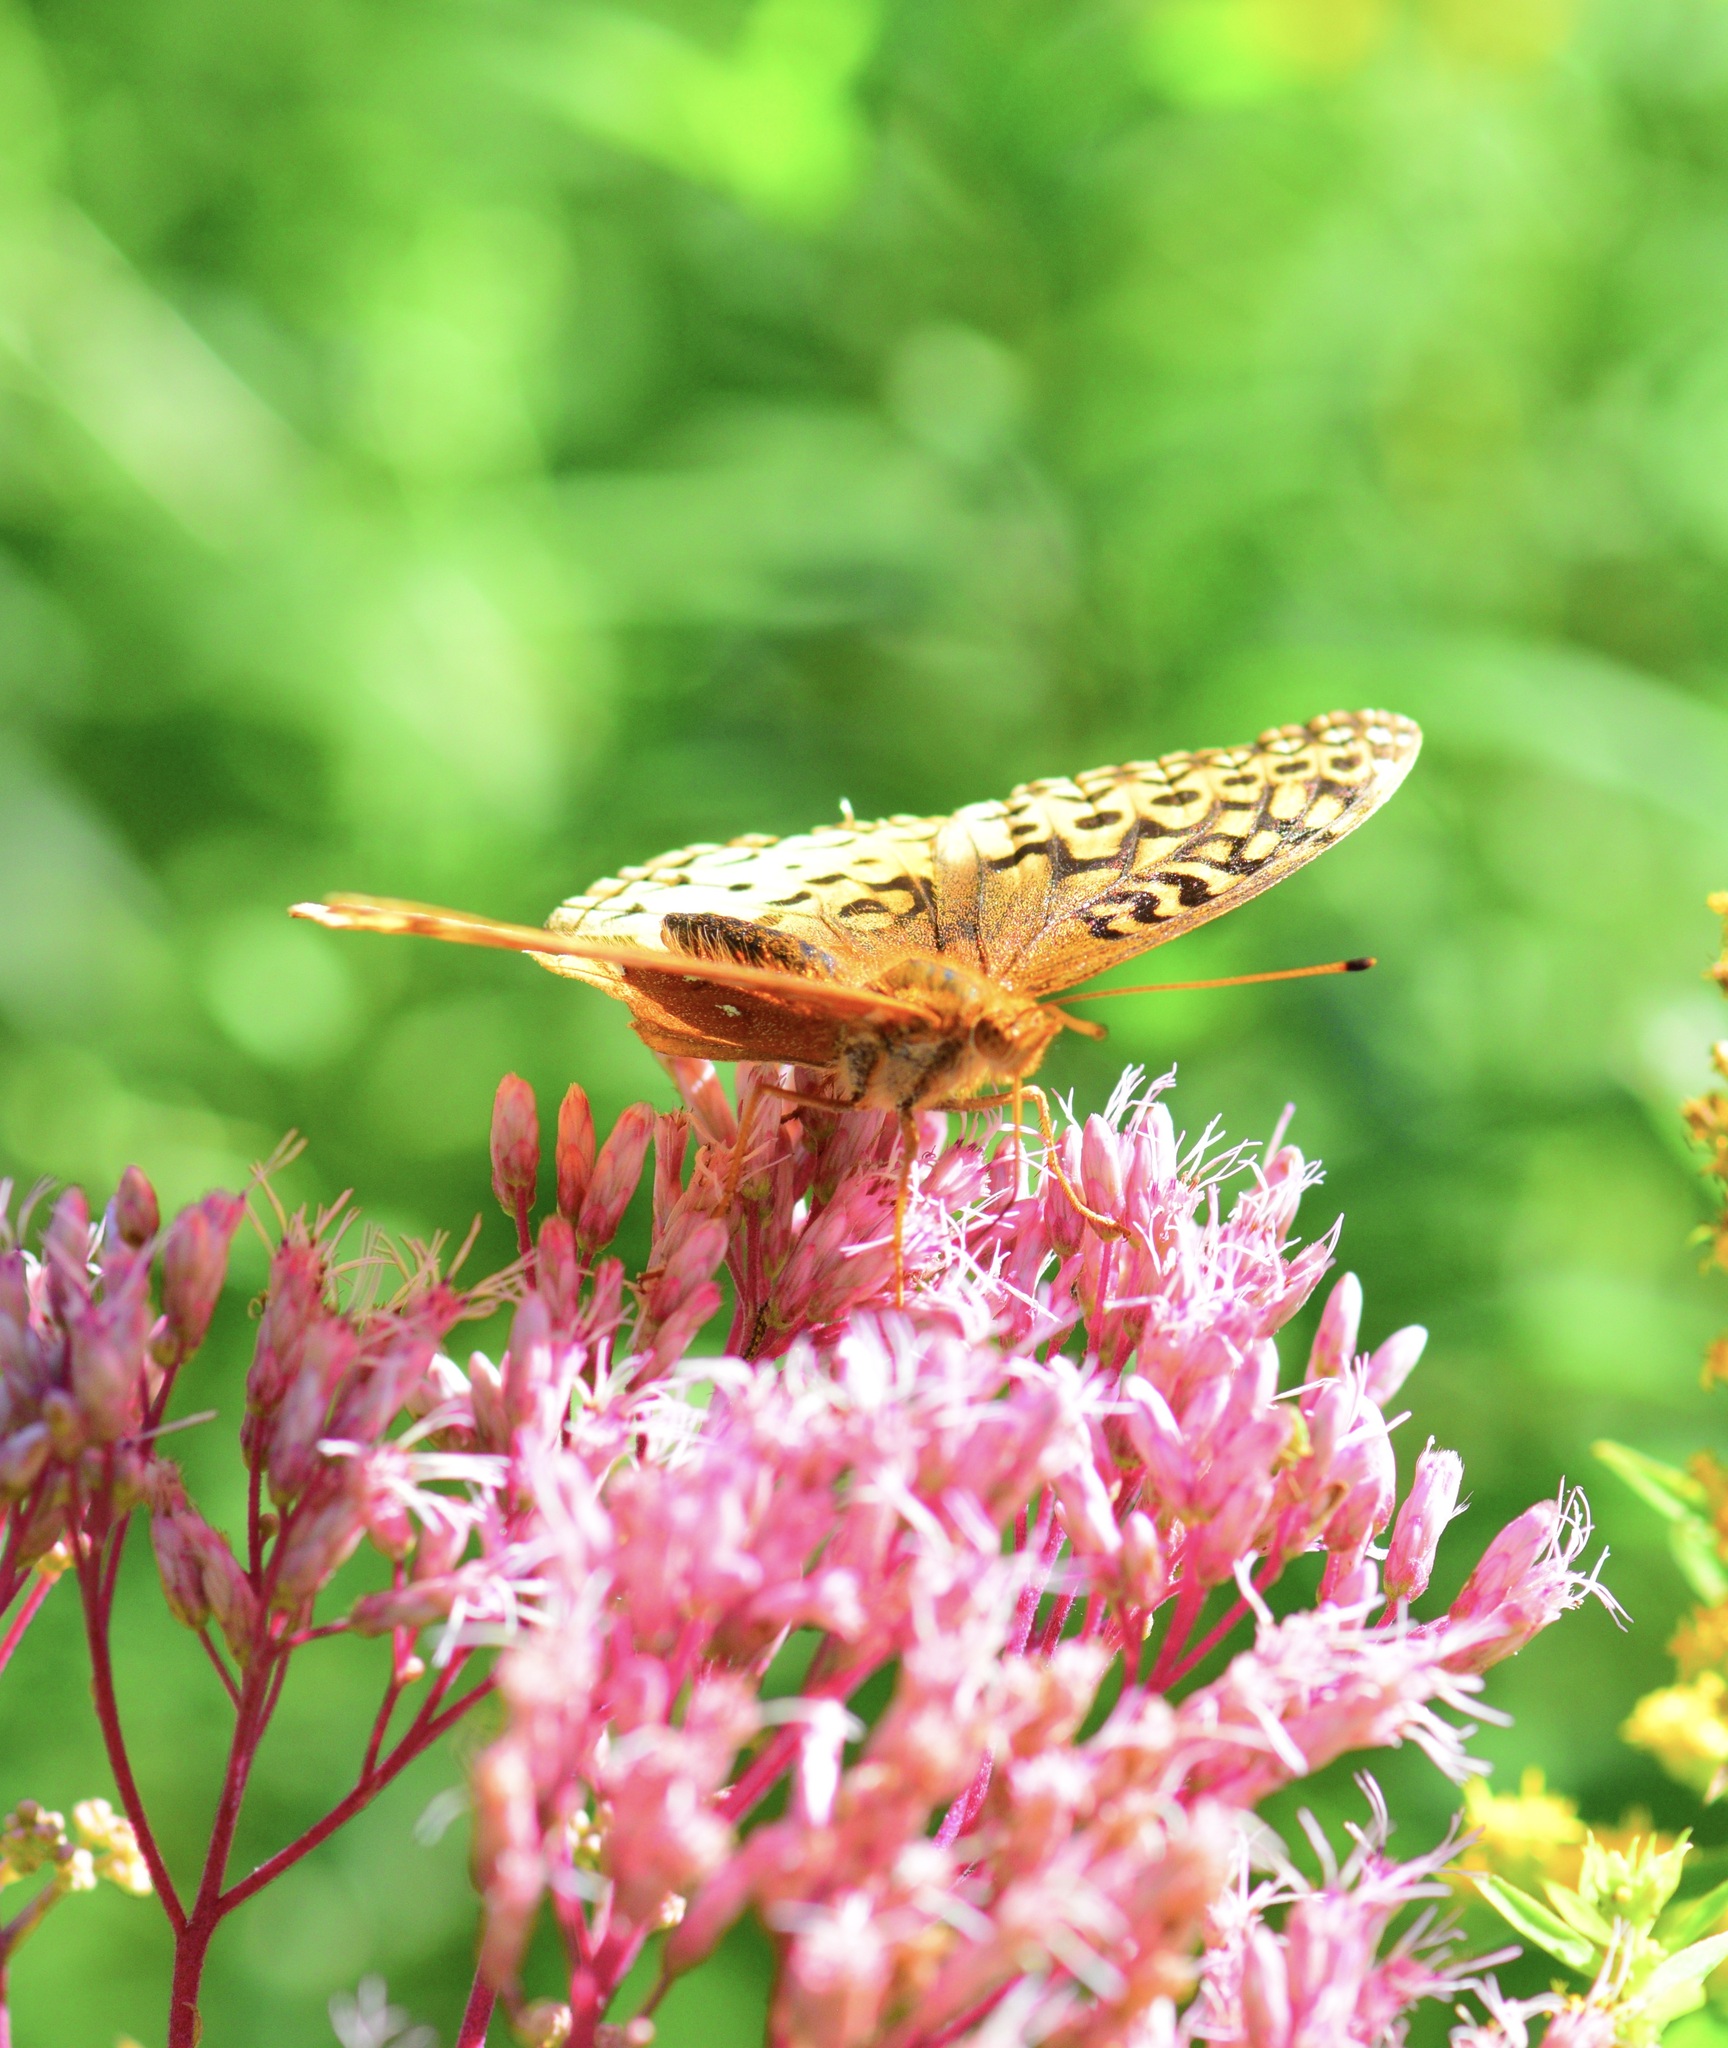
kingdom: Animalia
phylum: Arthropoda
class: Insecta
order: Lepidoptera
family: Nymphalidae
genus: Speyeria
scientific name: Speyeria cybele
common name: Great spangled fritillary
